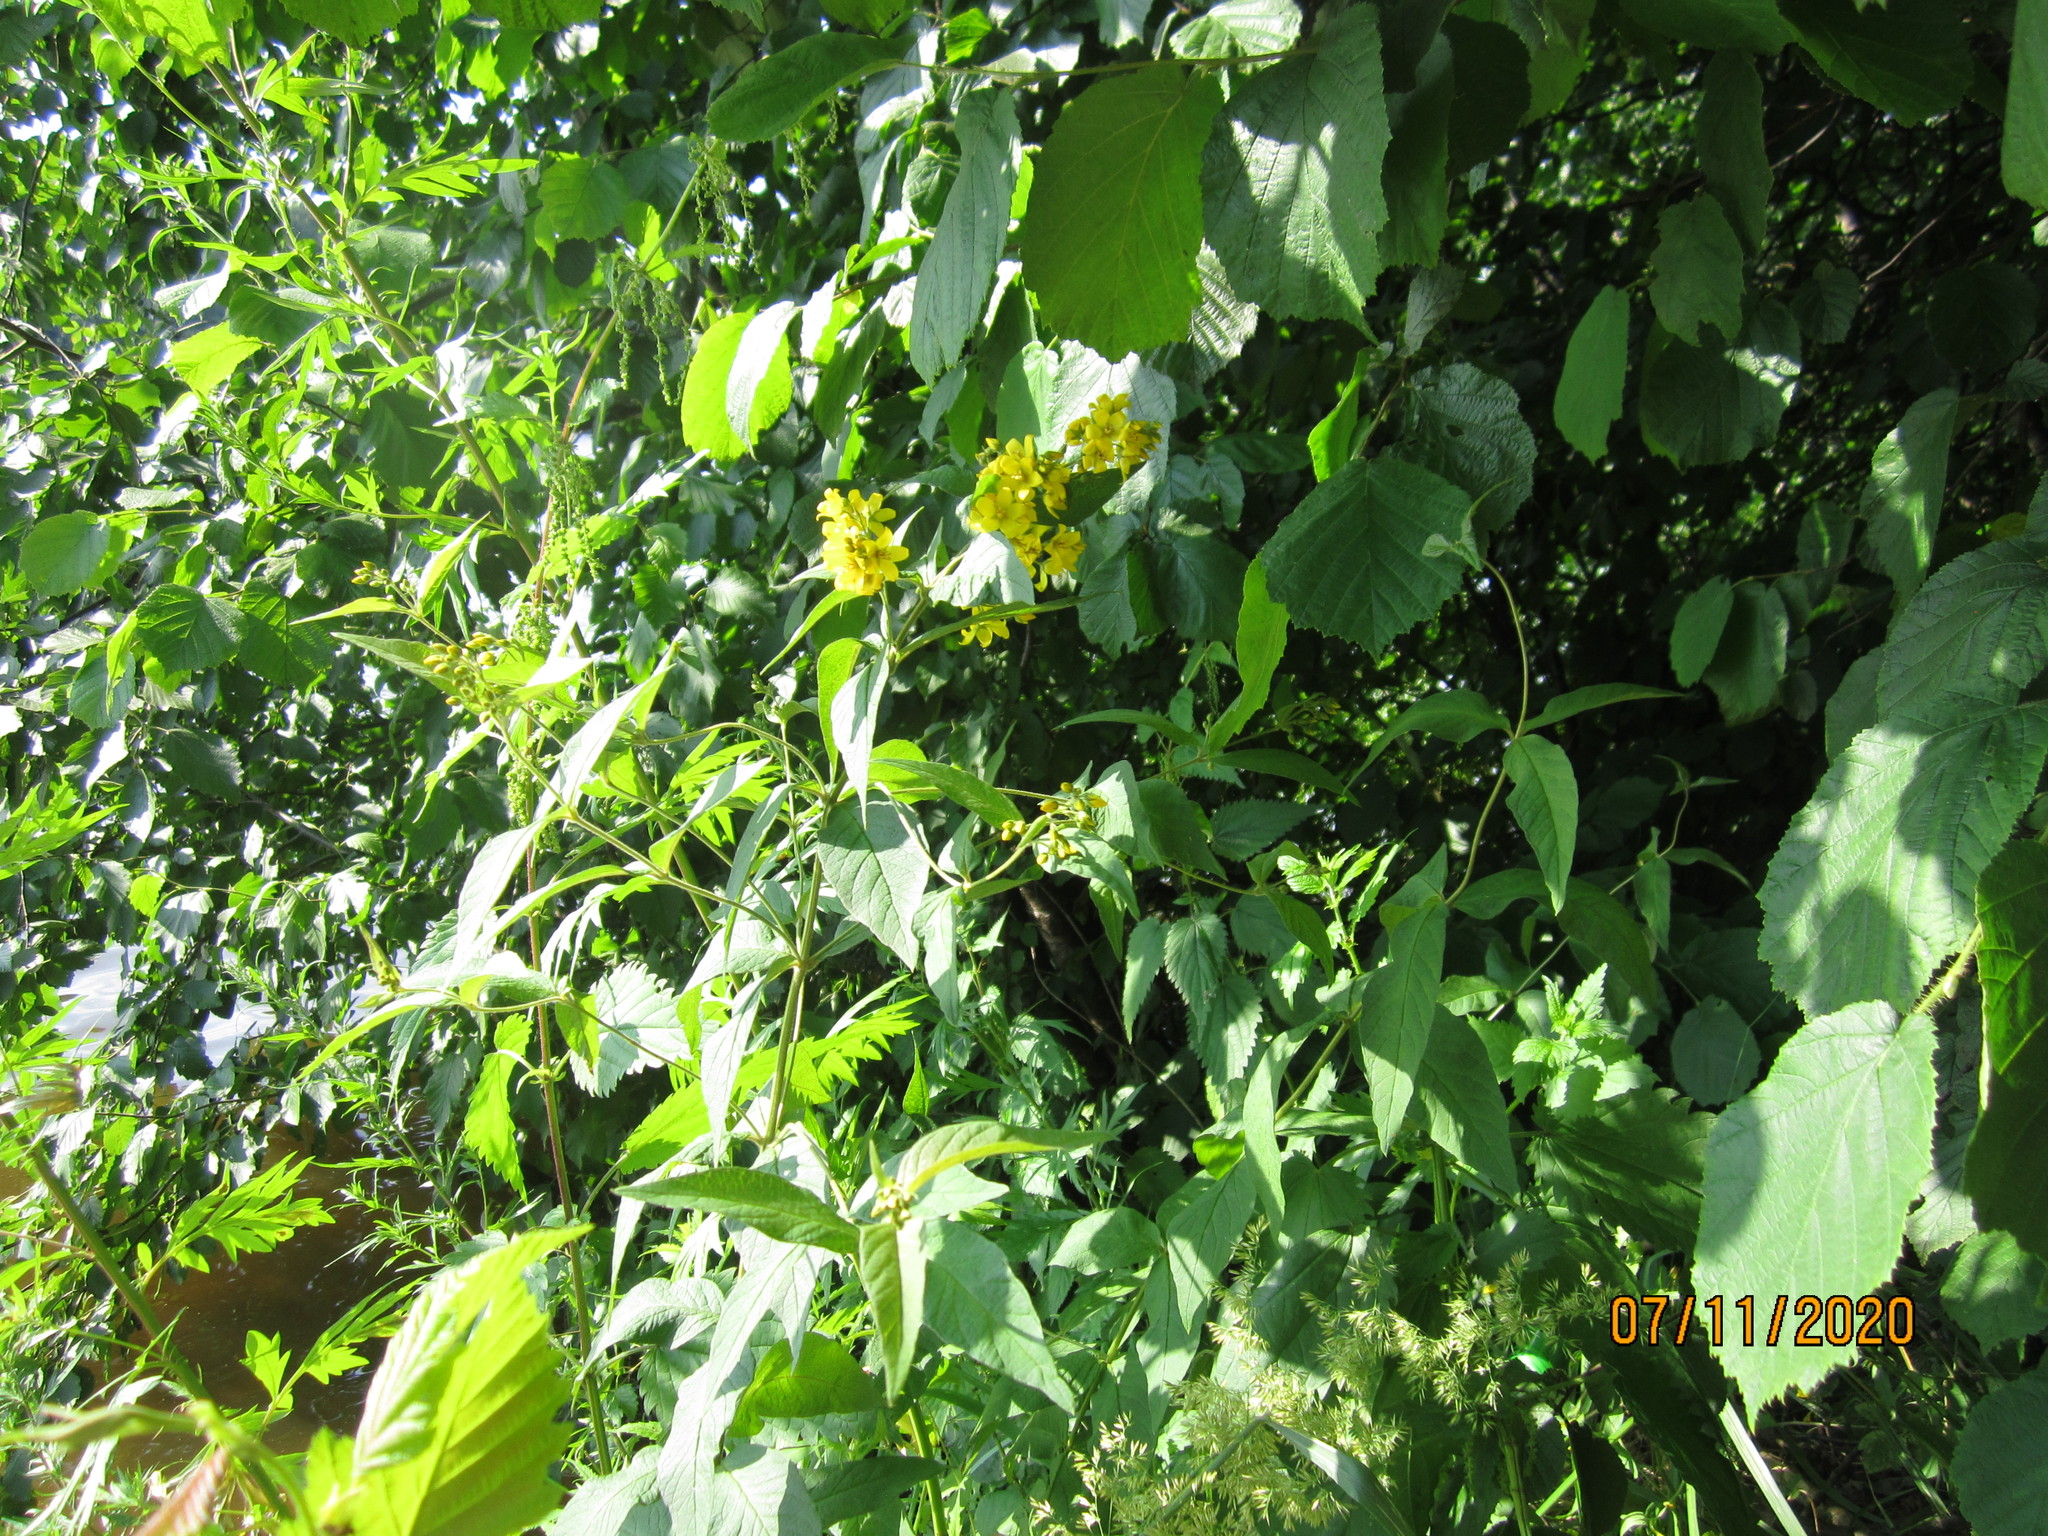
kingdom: Plantae
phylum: Tracheophyta
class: Magnoliopsida
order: Ericales
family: Primulaceae
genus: Lysimachia
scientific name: Lysimachia vulgaris
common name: Yellow loosestrife
